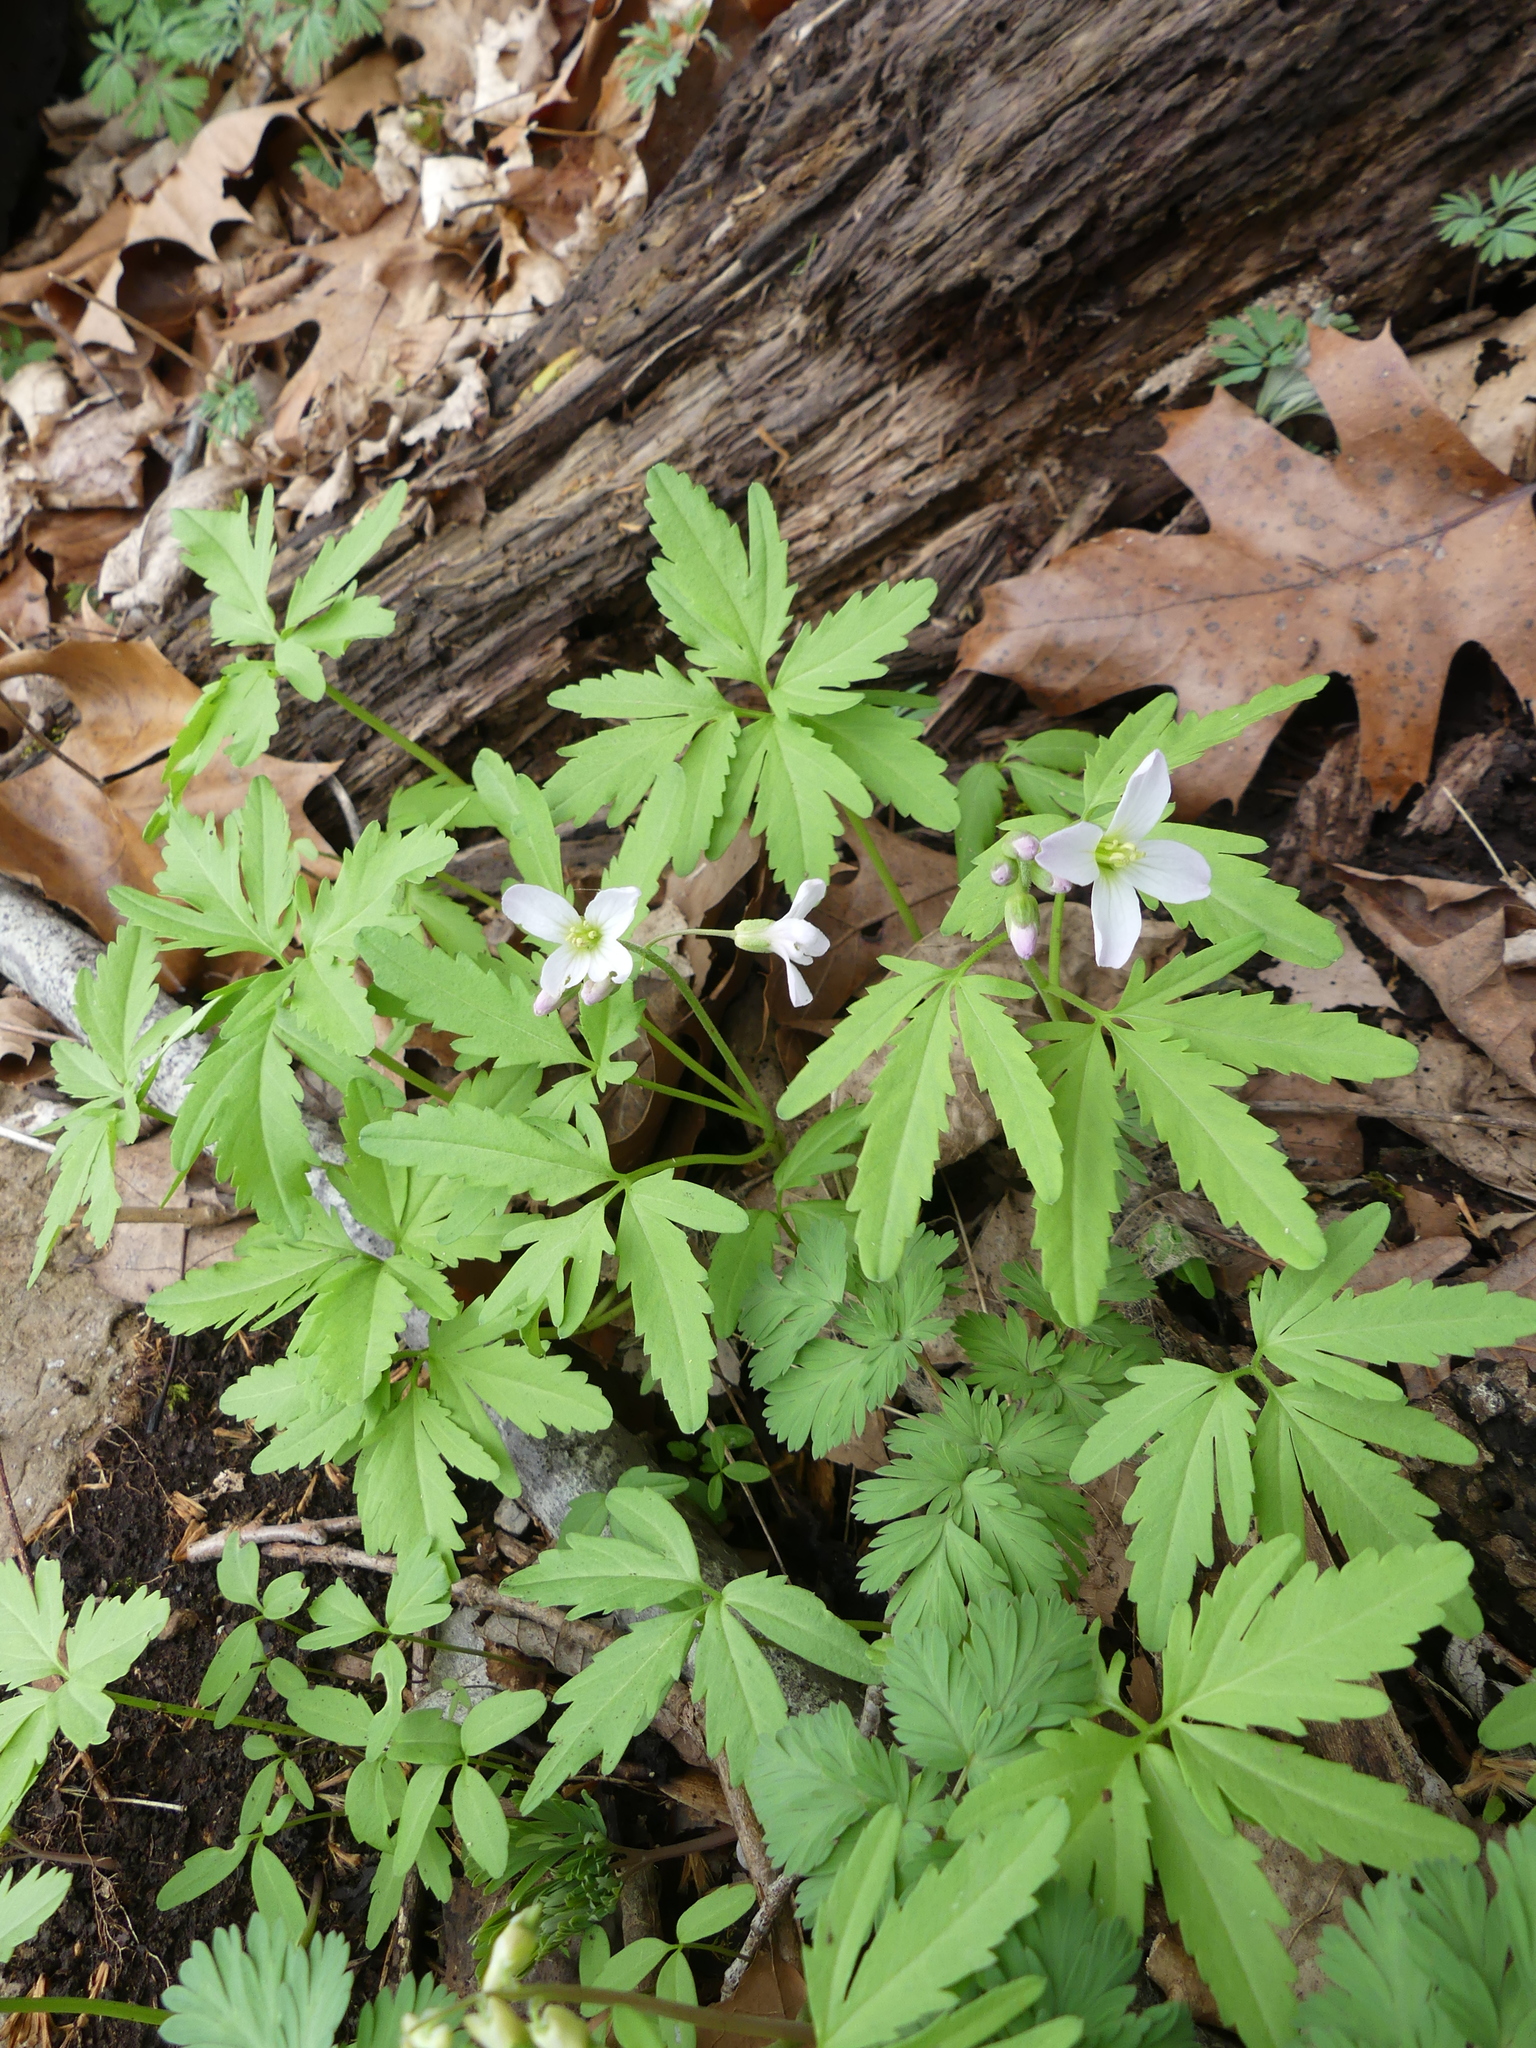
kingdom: Plantae
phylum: Tracheophyta
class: Magnoliopsida
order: Brassicales
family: Brassicaceae
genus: Cardamine
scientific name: Cardamine concatenata
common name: Cut-leaf toothcup
